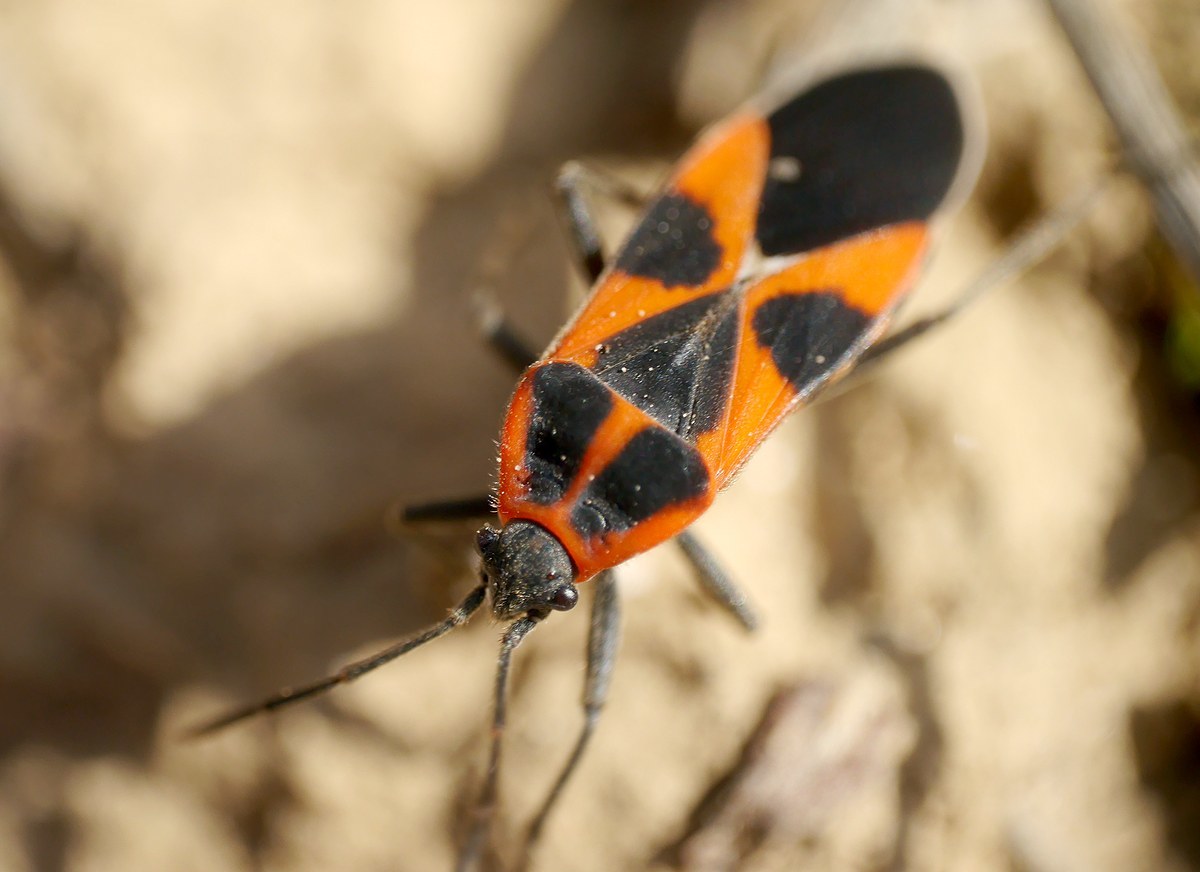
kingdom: Animalia
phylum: Arthropoda
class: Insecta
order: Hemiptera
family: Lygaeidae
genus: Tropidothorax
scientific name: Tropidothorax leucopterus
